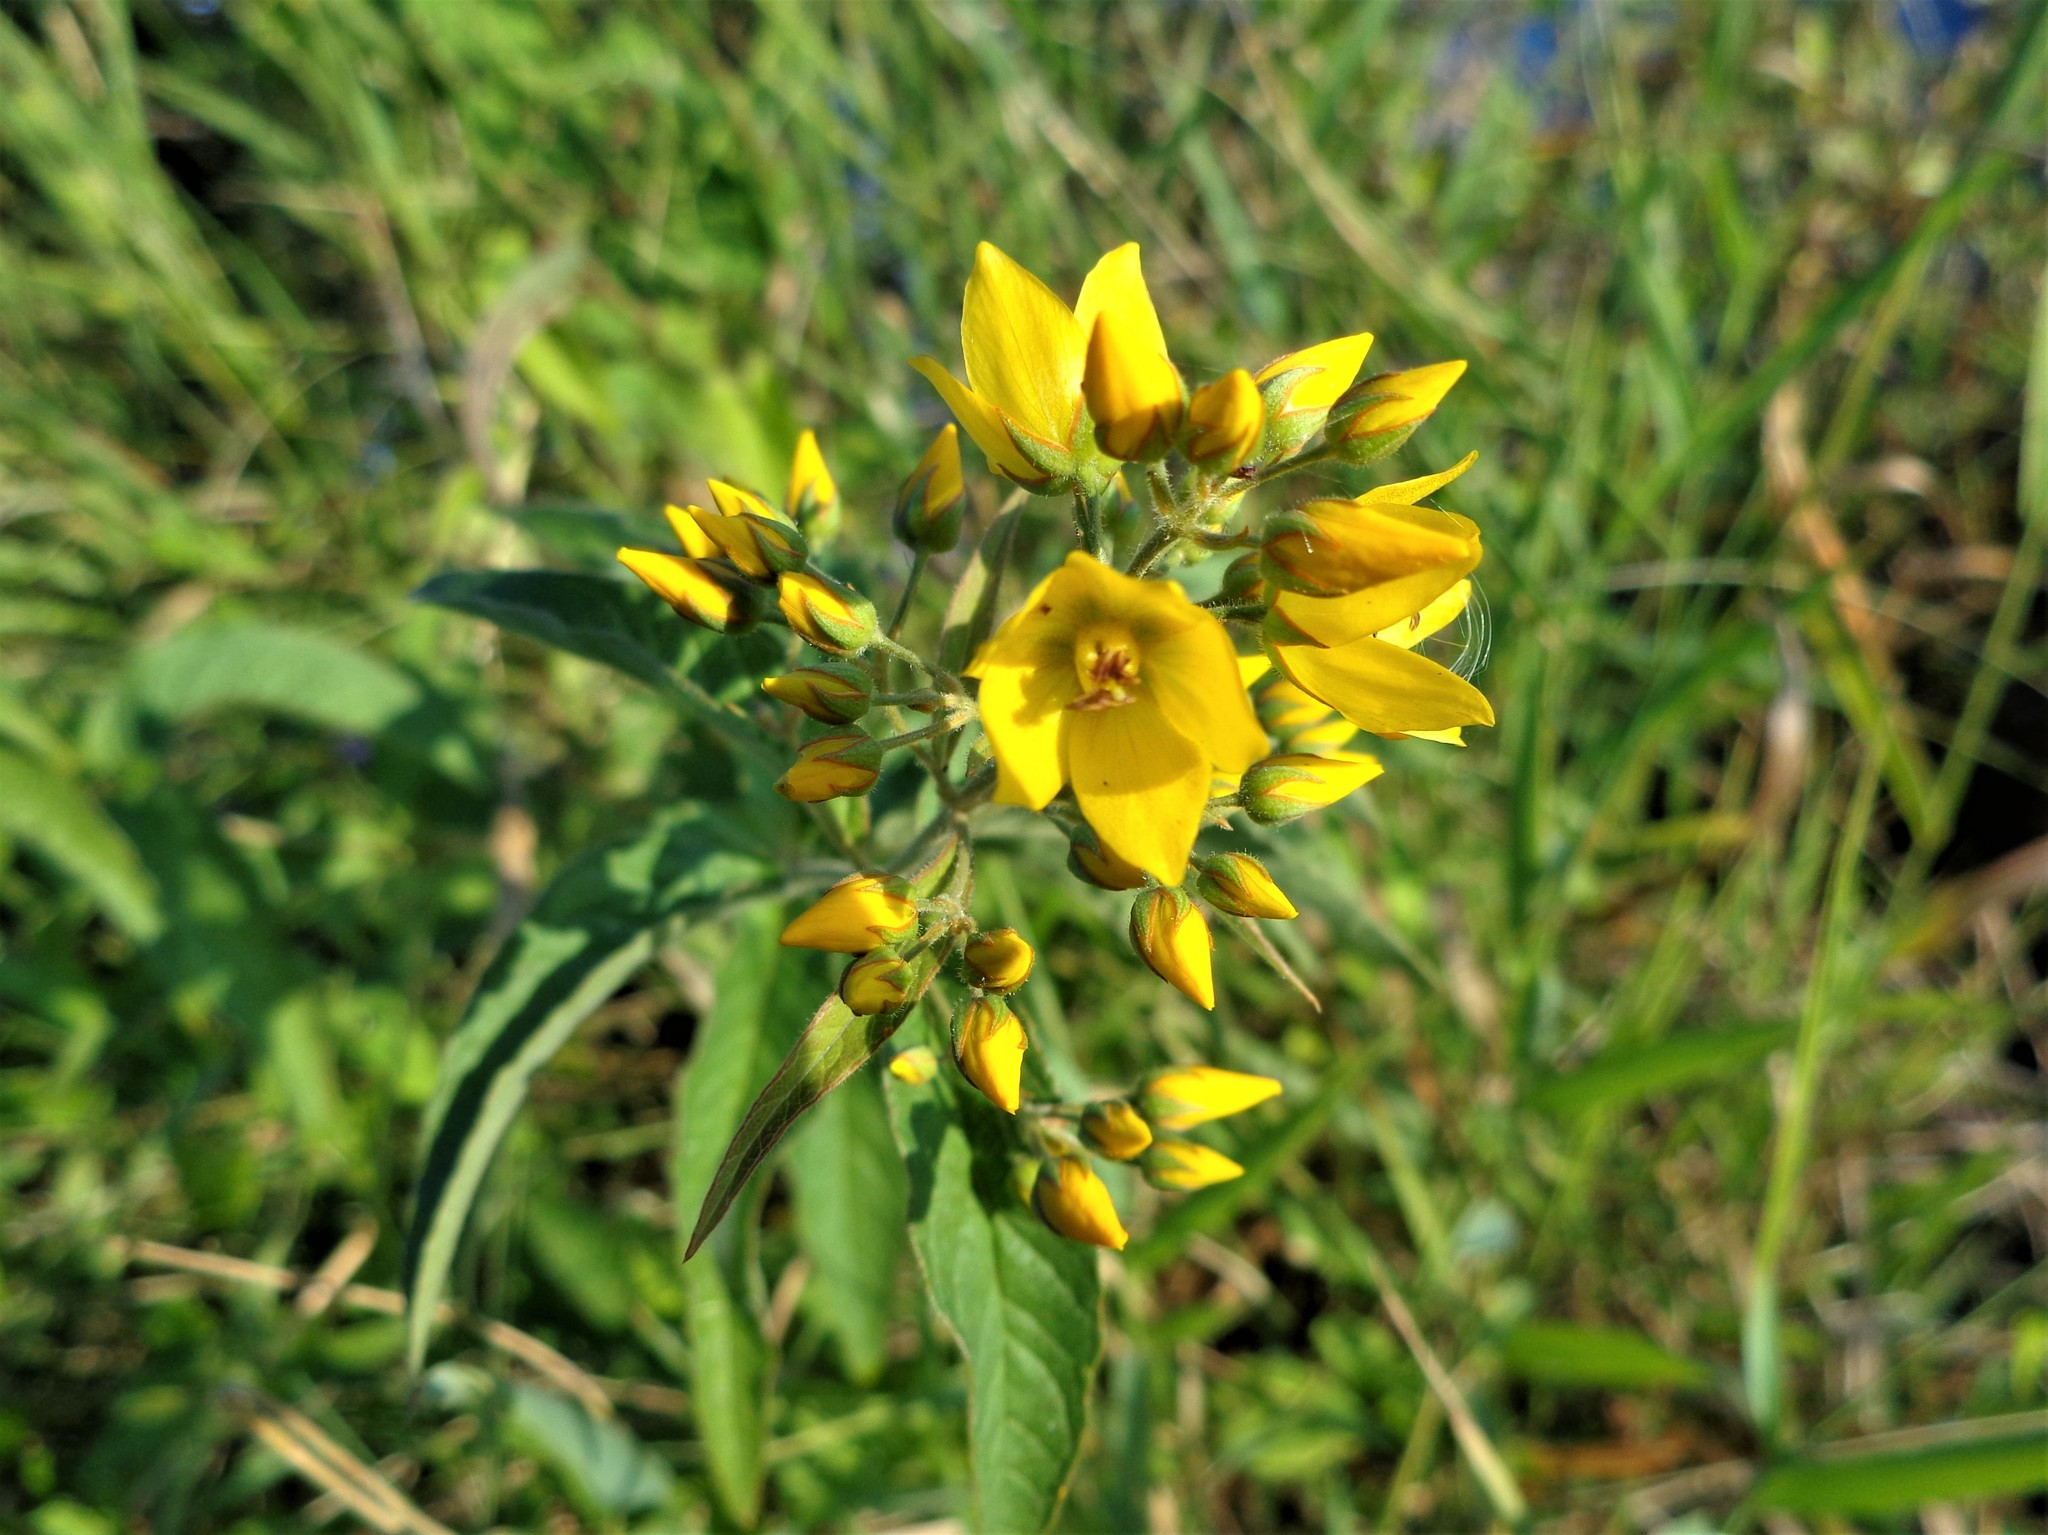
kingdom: Plantae
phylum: Tracheophyta
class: Magnoliopsida
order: Ericales
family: Primulaceae
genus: Lysimachia
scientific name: Lysimachia vulgaris
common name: Yellow loosestrife
